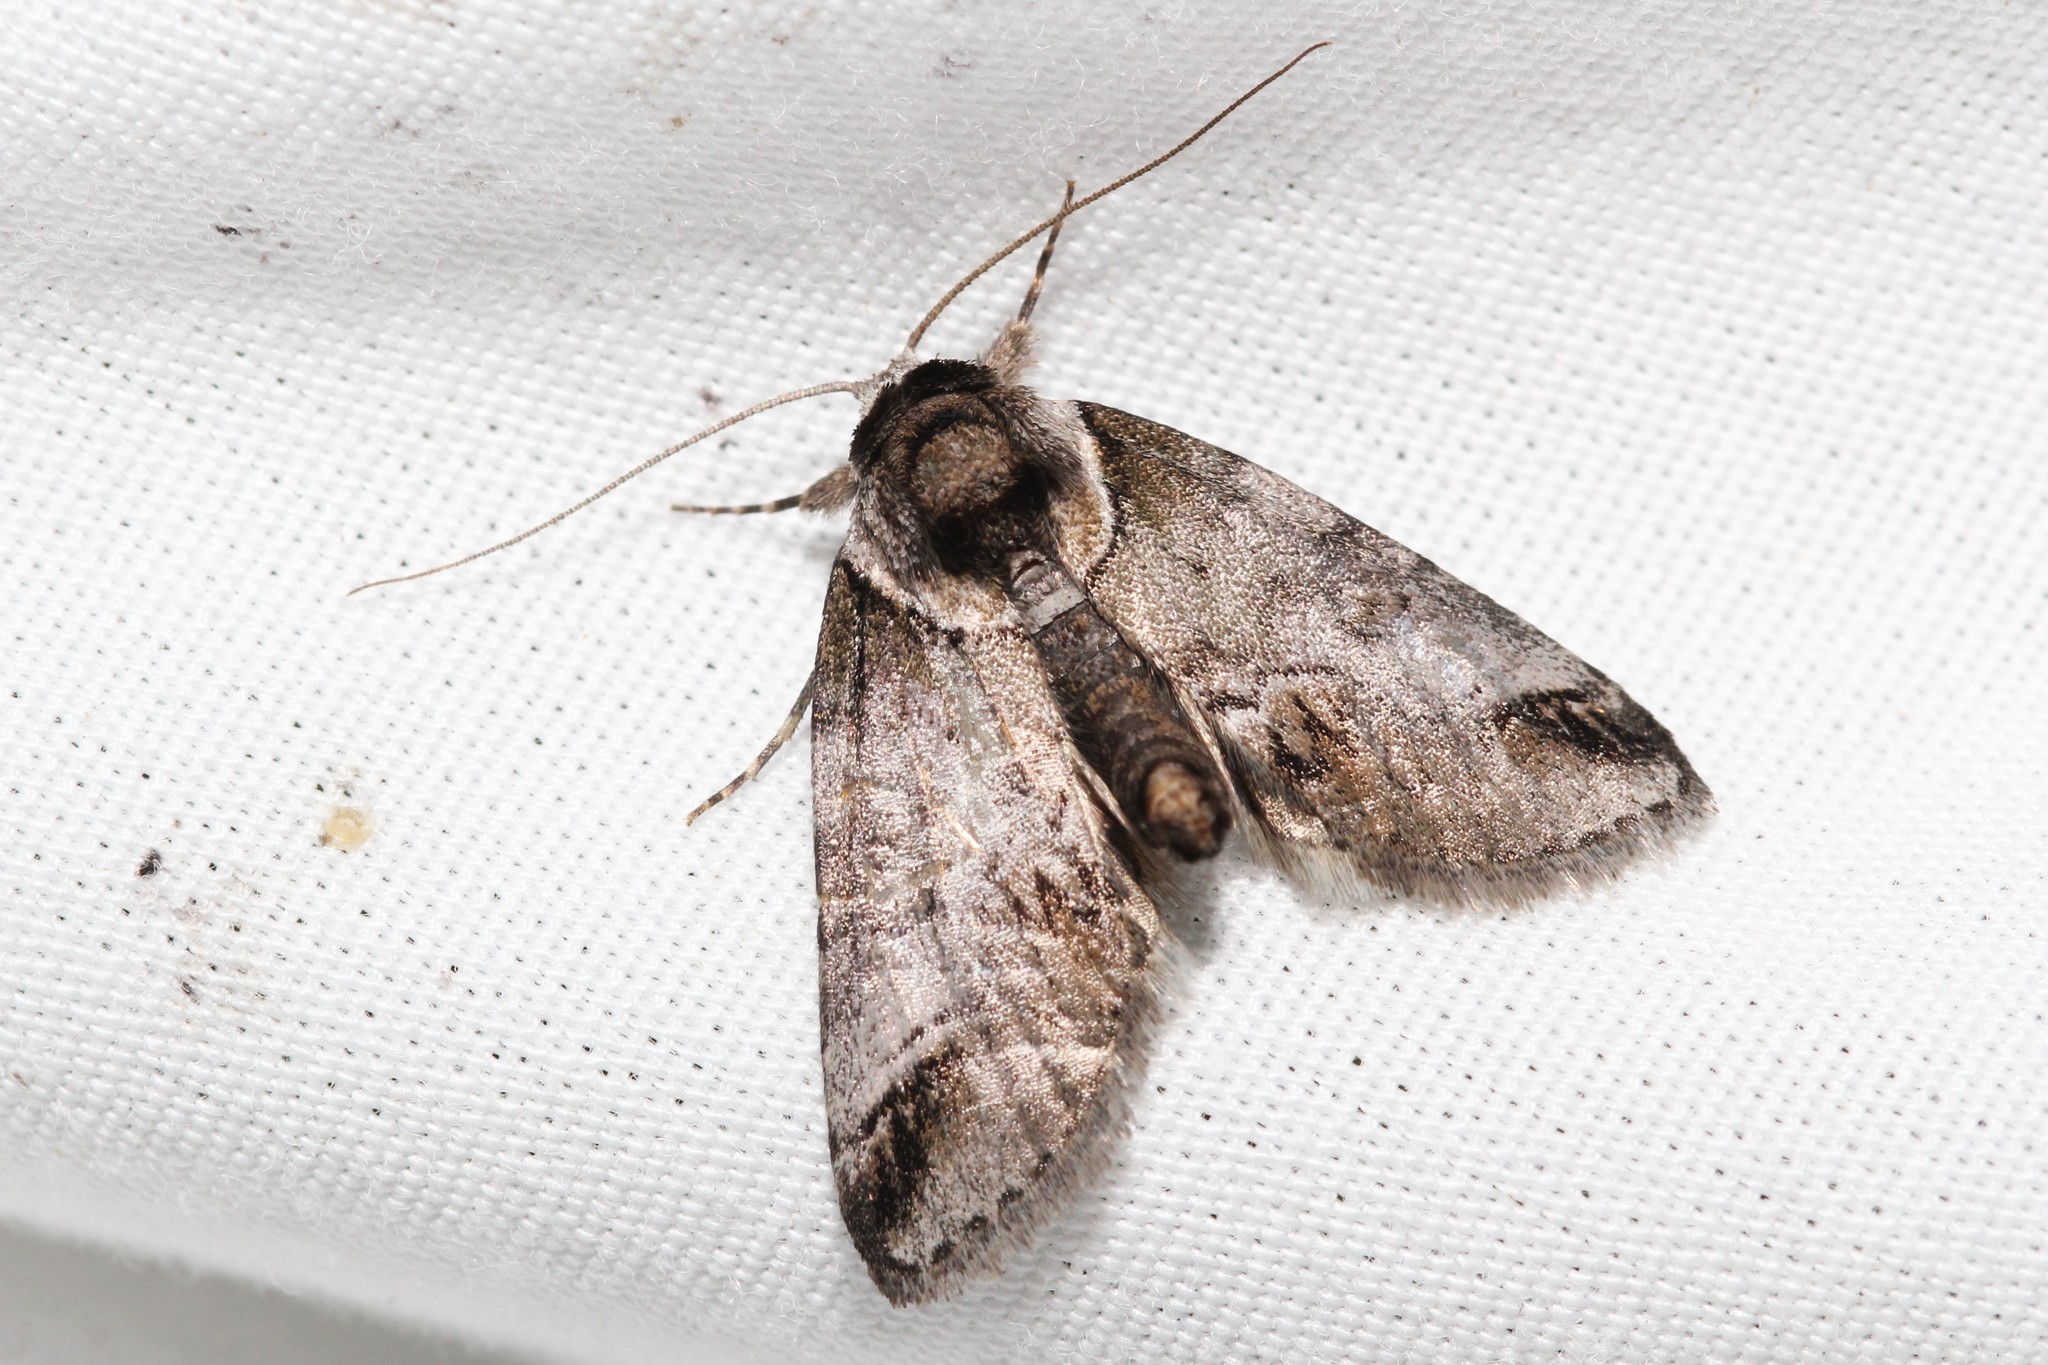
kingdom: Animalia
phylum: Arthropoda
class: Insecta
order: Lepidoptera
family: Nolidae
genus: Baileya
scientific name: Baileya australis
